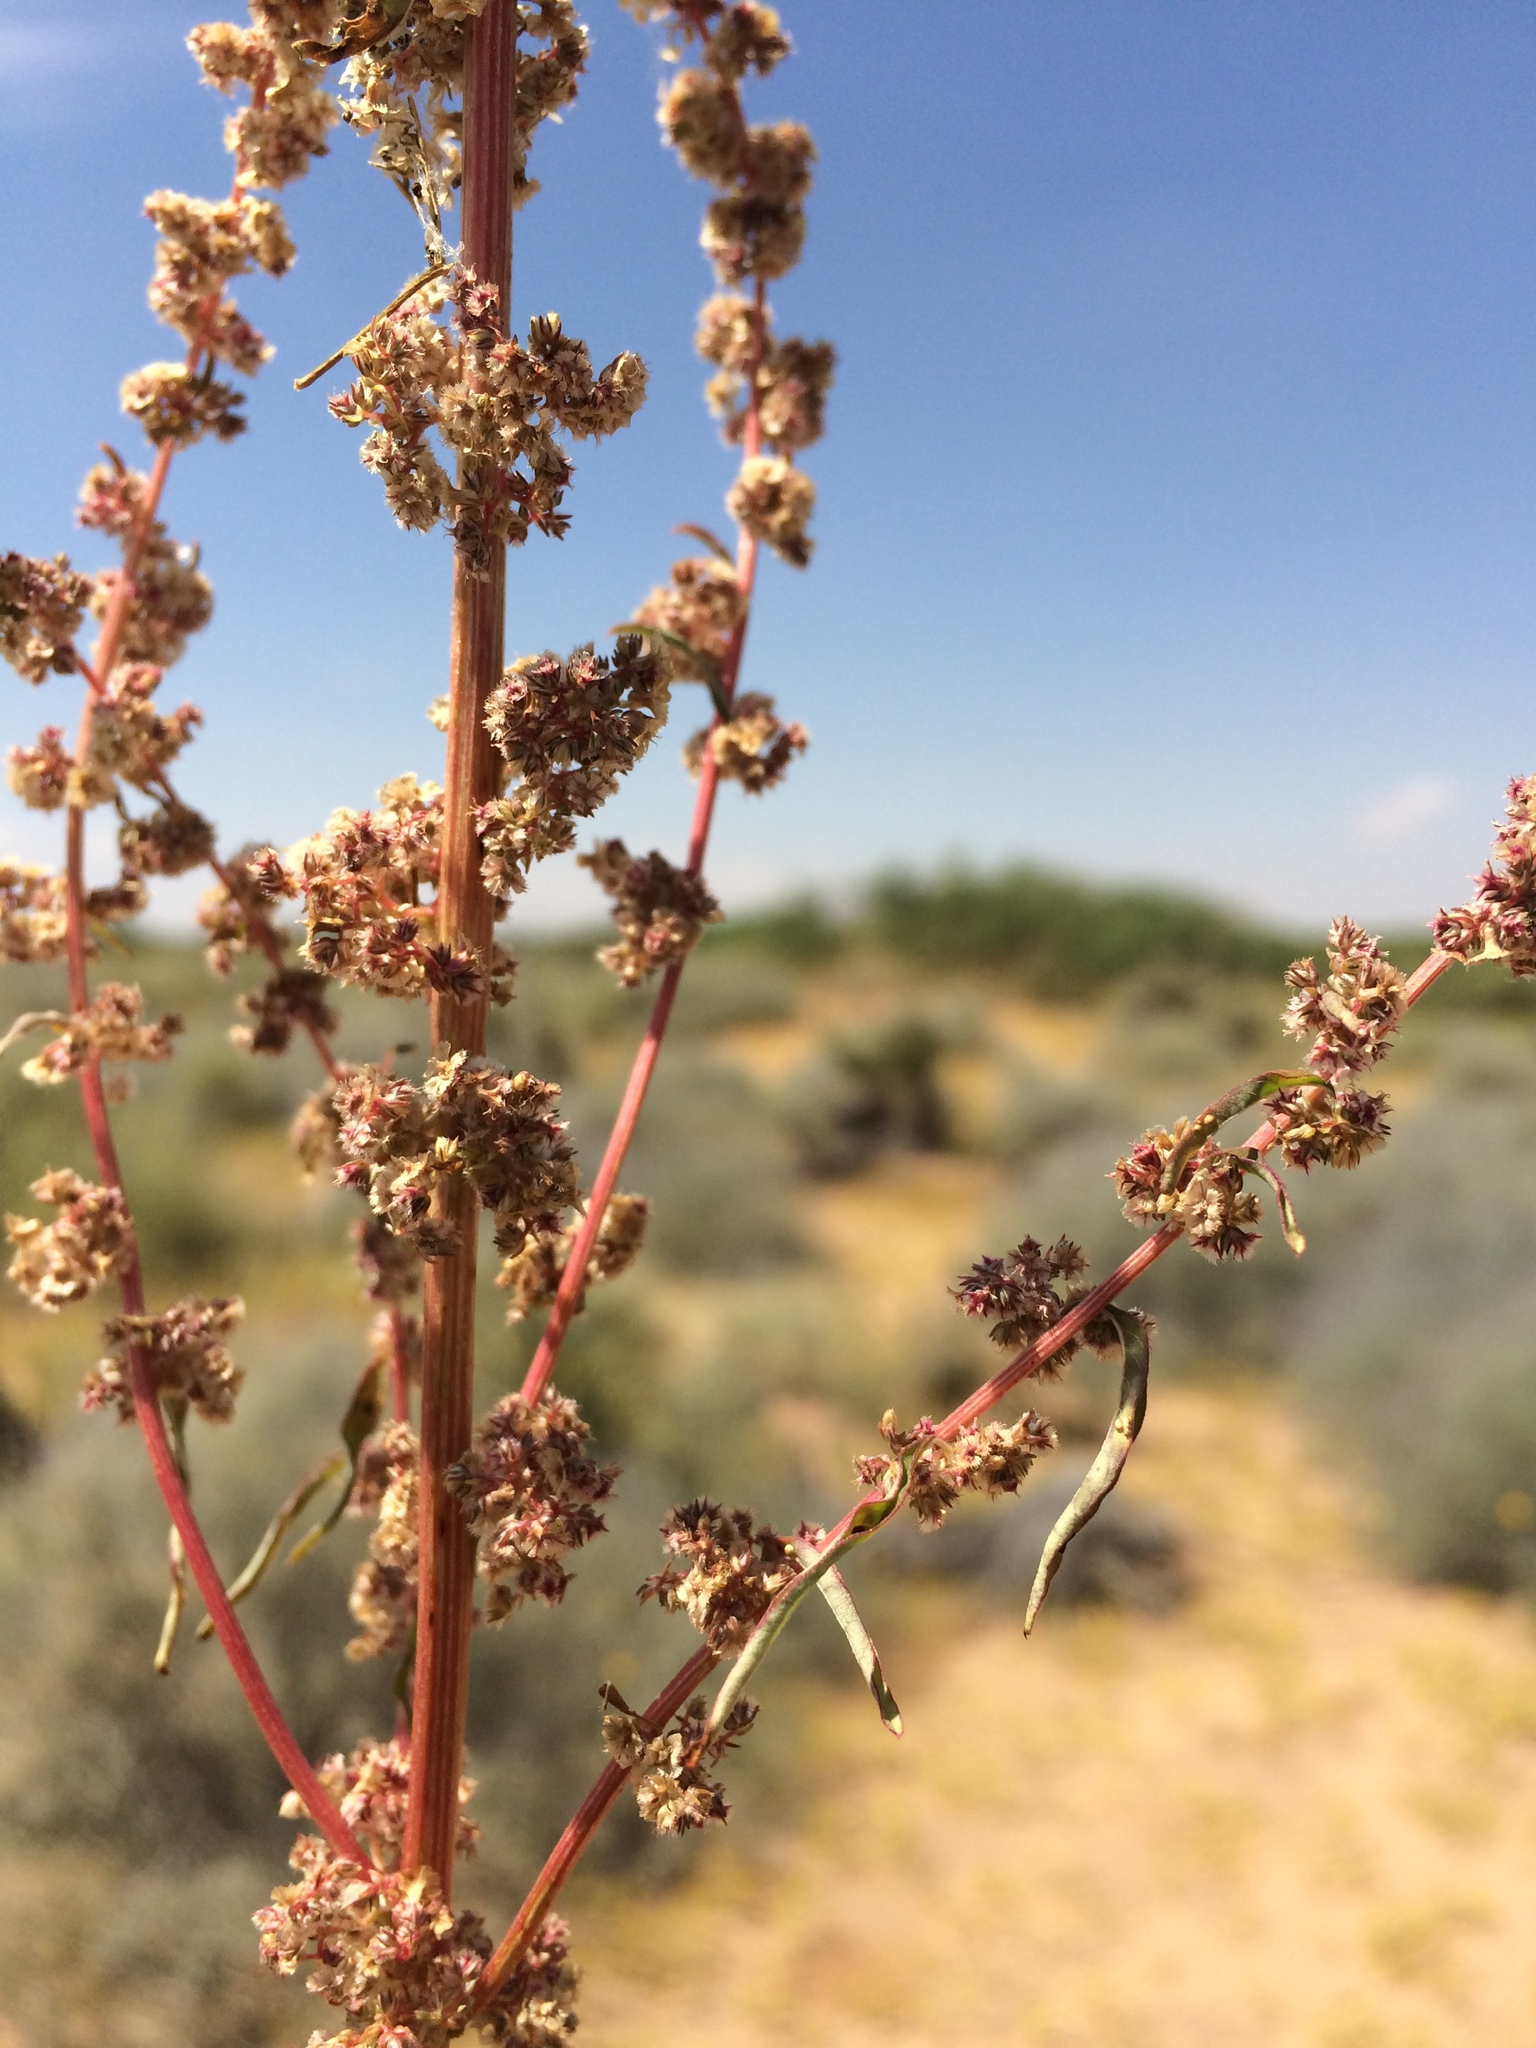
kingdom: Plantae
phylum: Tracheophyta
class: Magnoliopsida
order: Caryophyllales
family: Amaranthaceae
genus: Amaranthus
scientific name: Amaranthus fimbriatus
